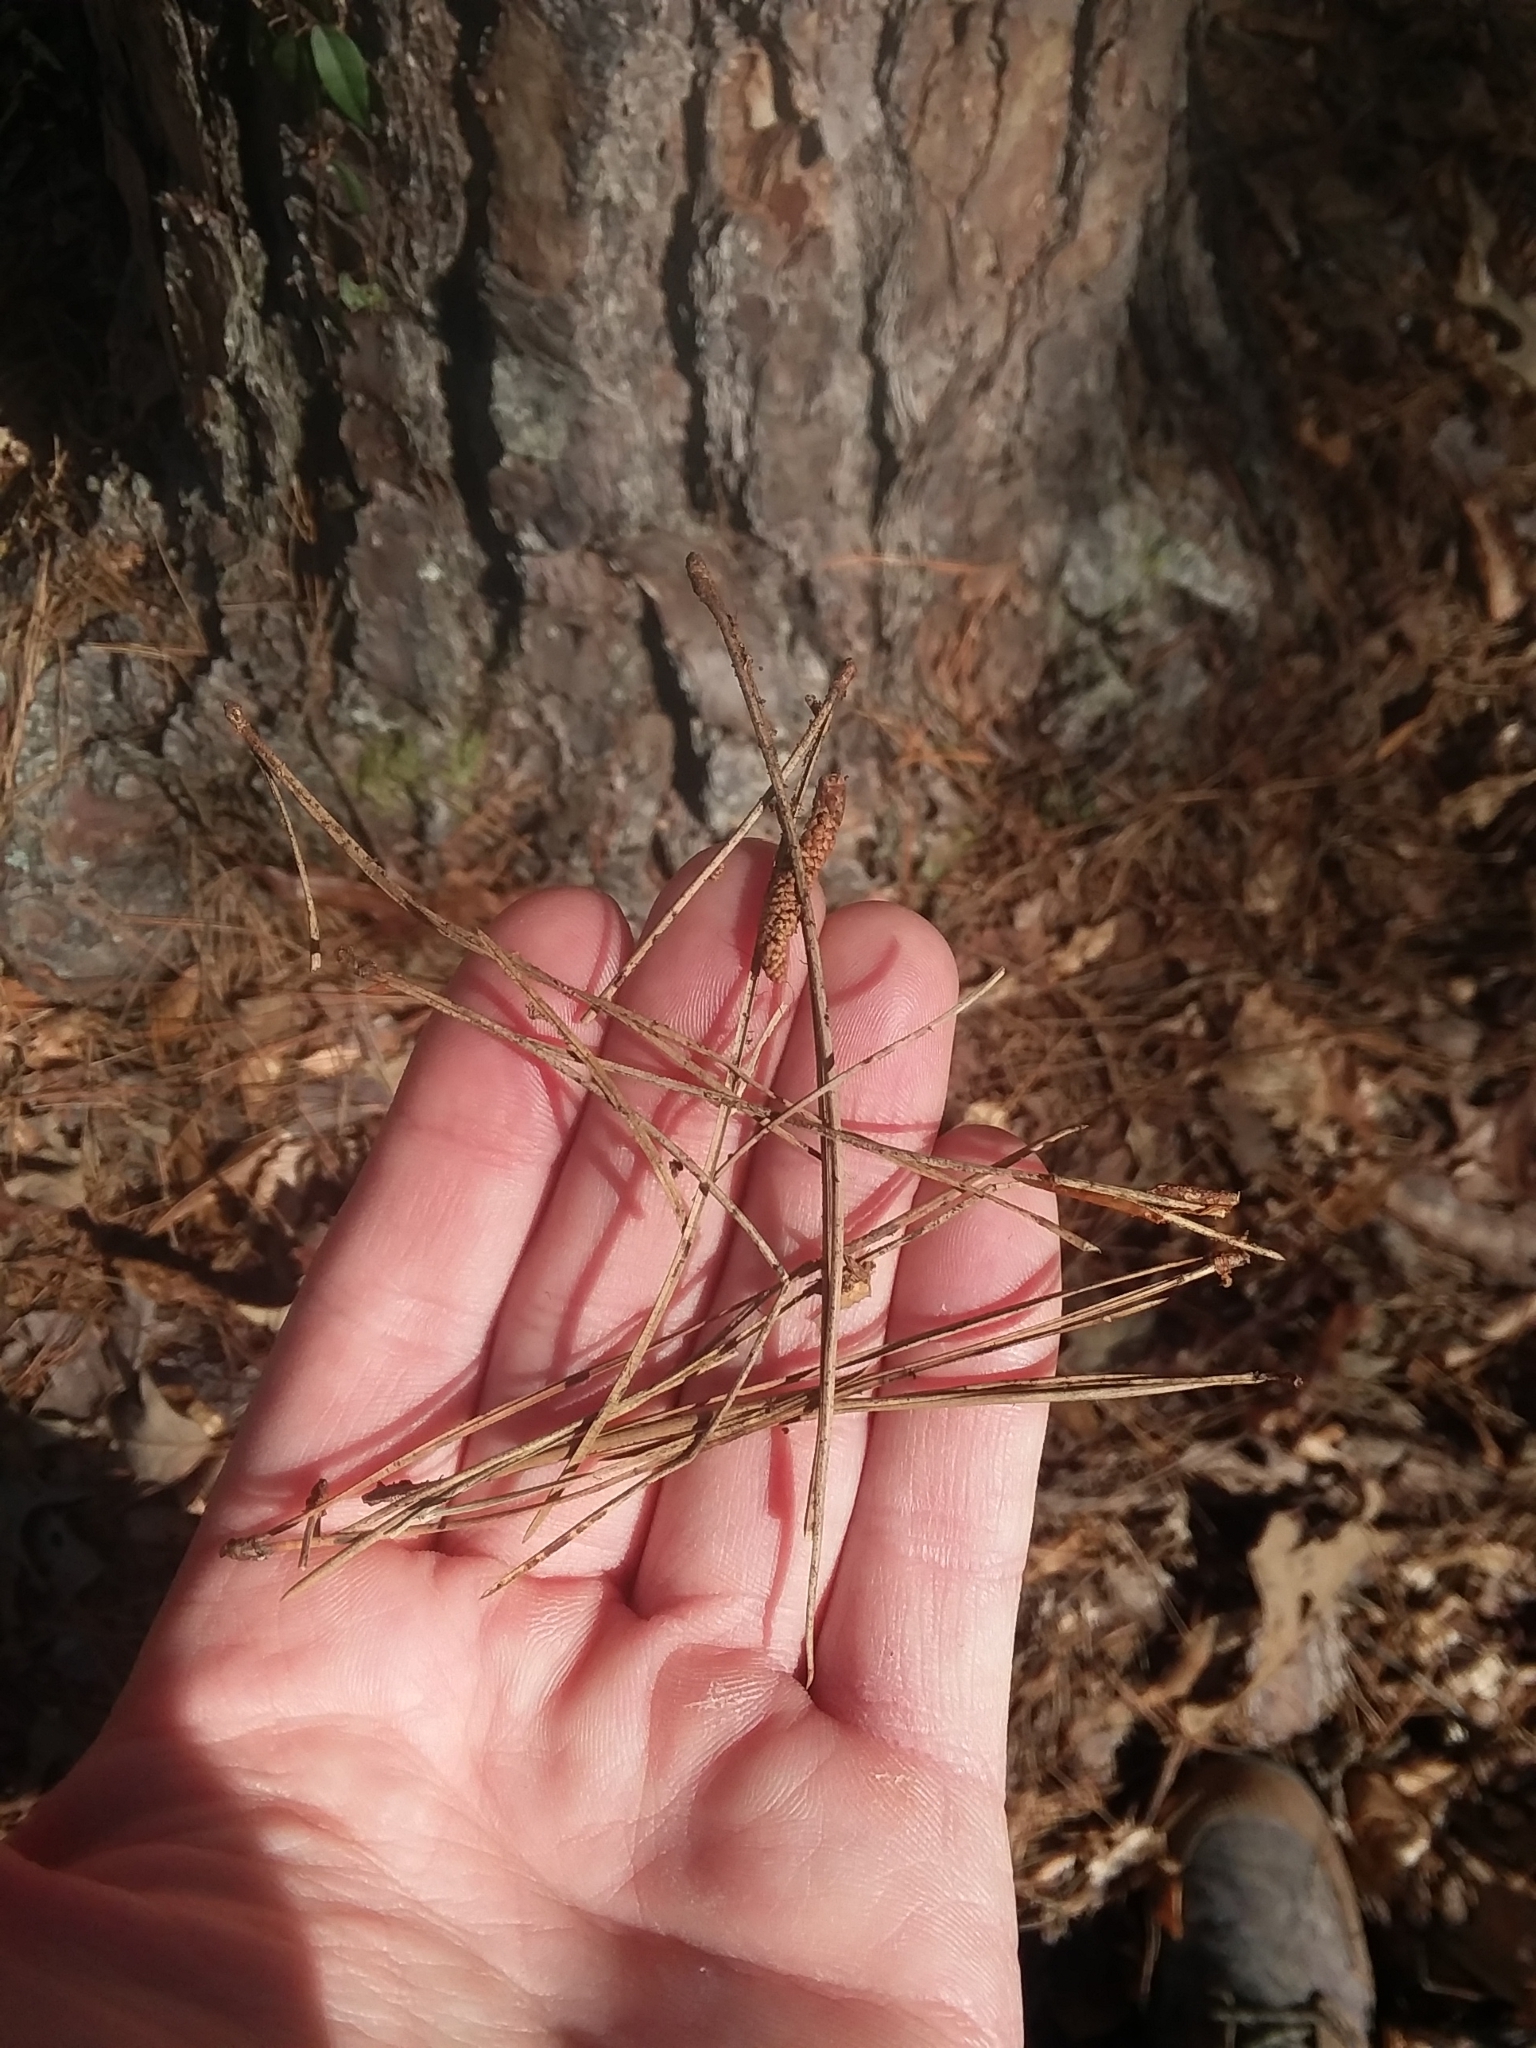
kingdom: Plantae
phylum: Tracheophyta
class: Pinopsida
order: Pinales
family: Pinaceae
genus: Pinus
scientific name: Pinus echinata
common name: Shortleaf pine
